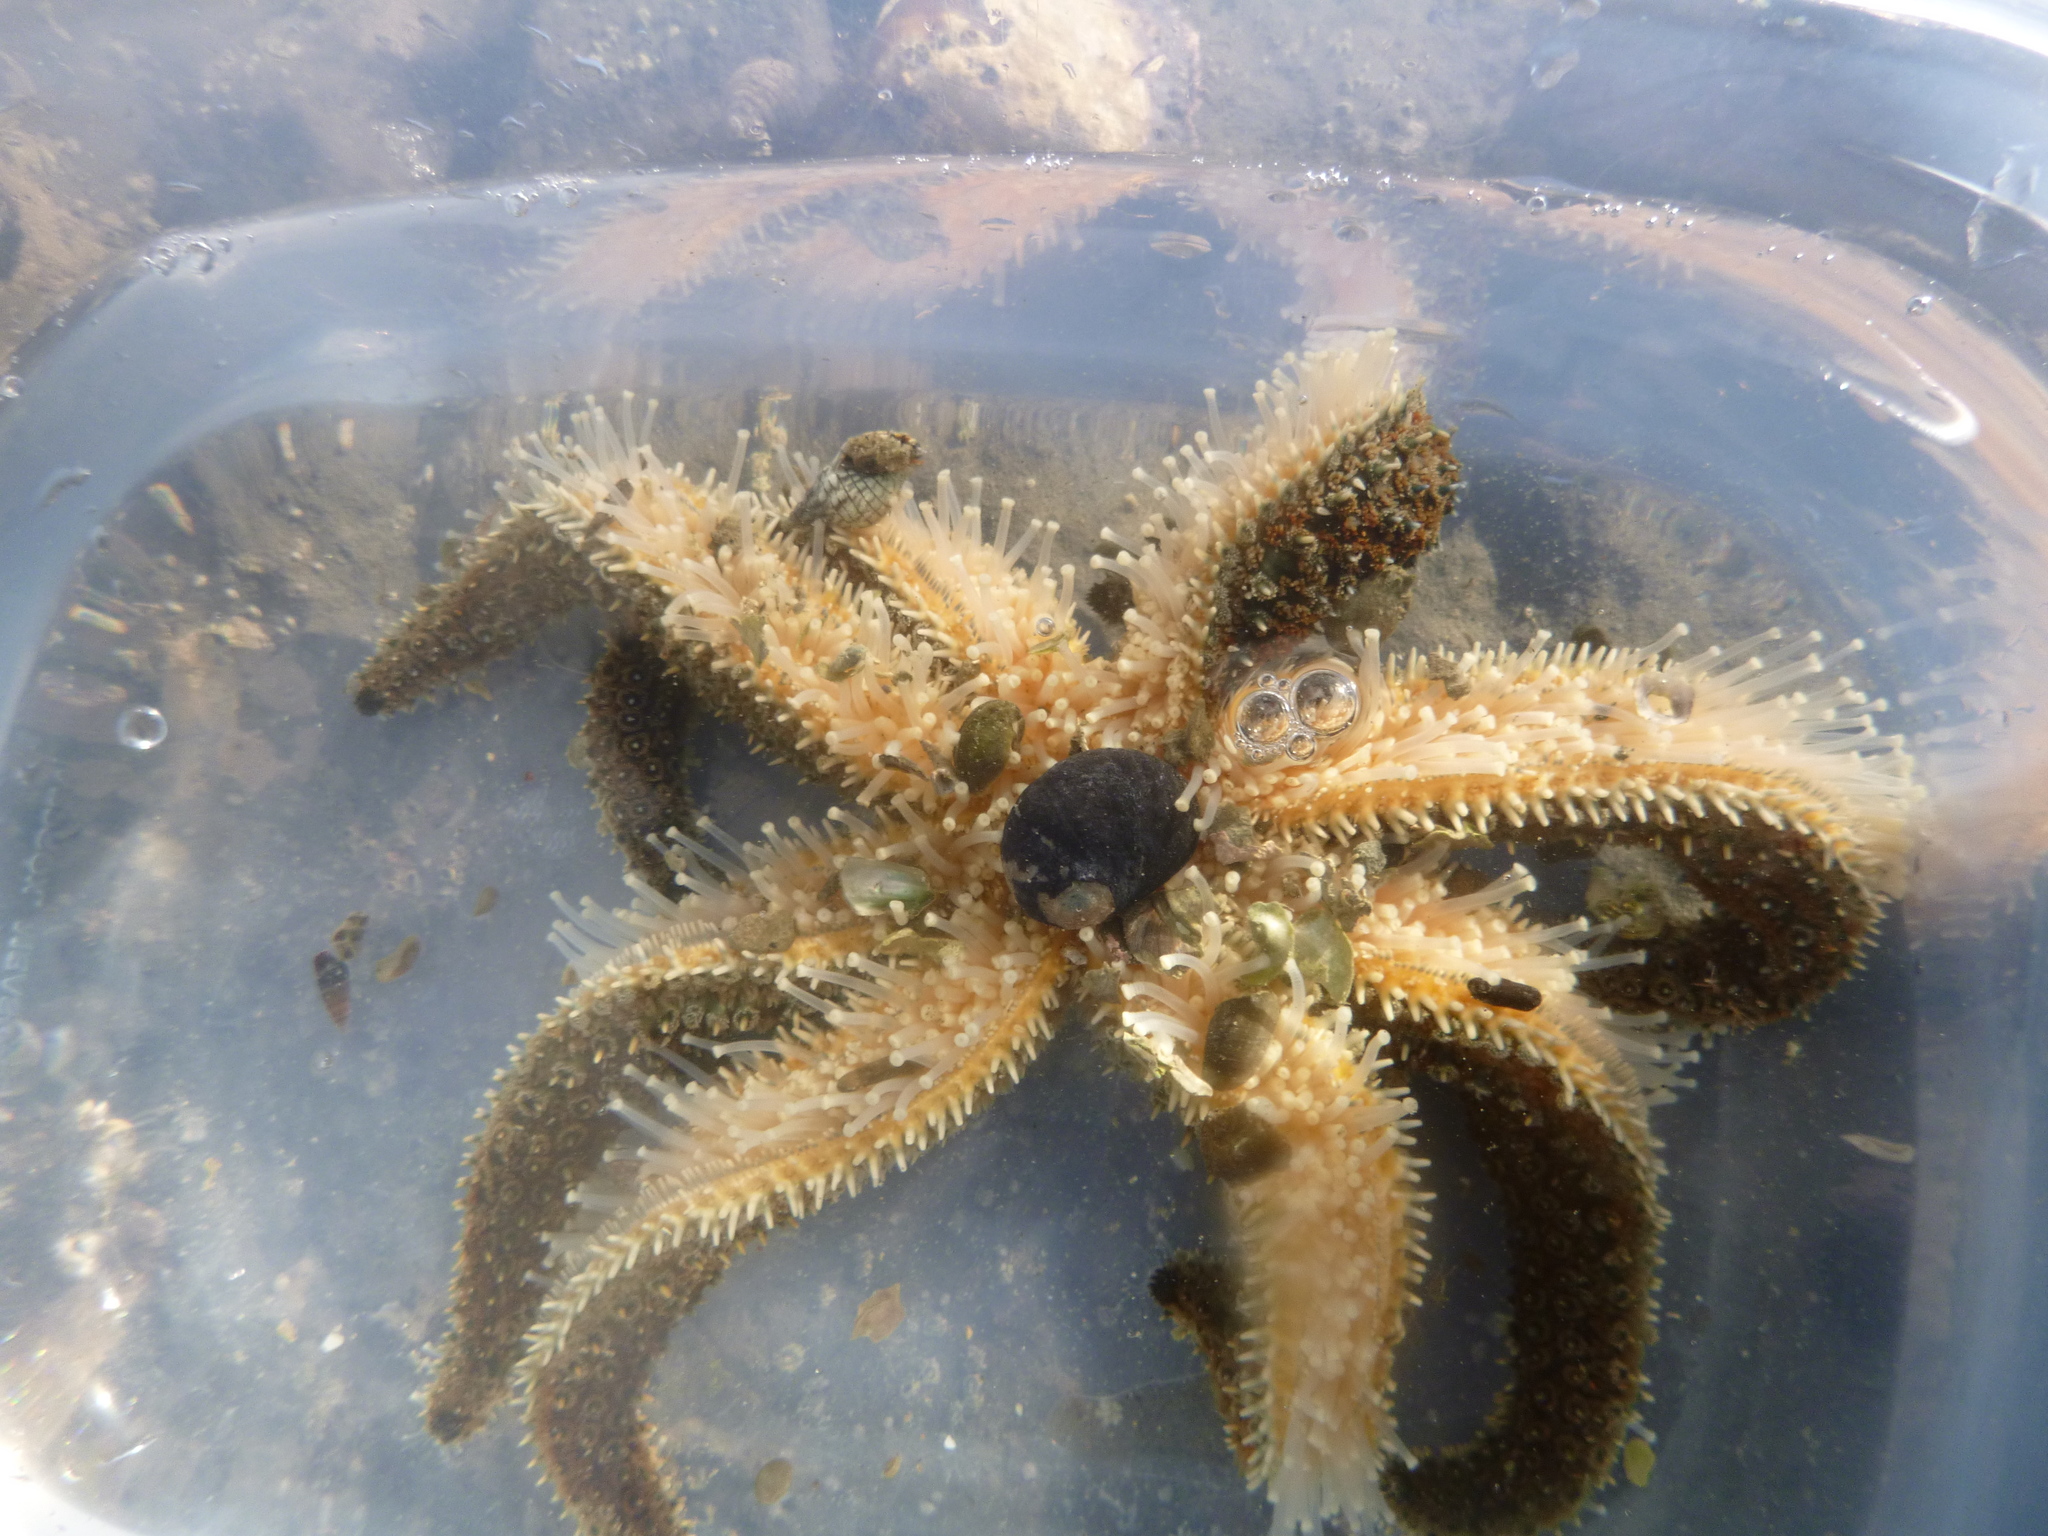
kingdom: Animalia
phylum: Echinodermata
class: Asteroidea
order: Forcipulatida
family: Asteriidae
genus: Coscinasterias
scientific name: Coscinasterias muricata
